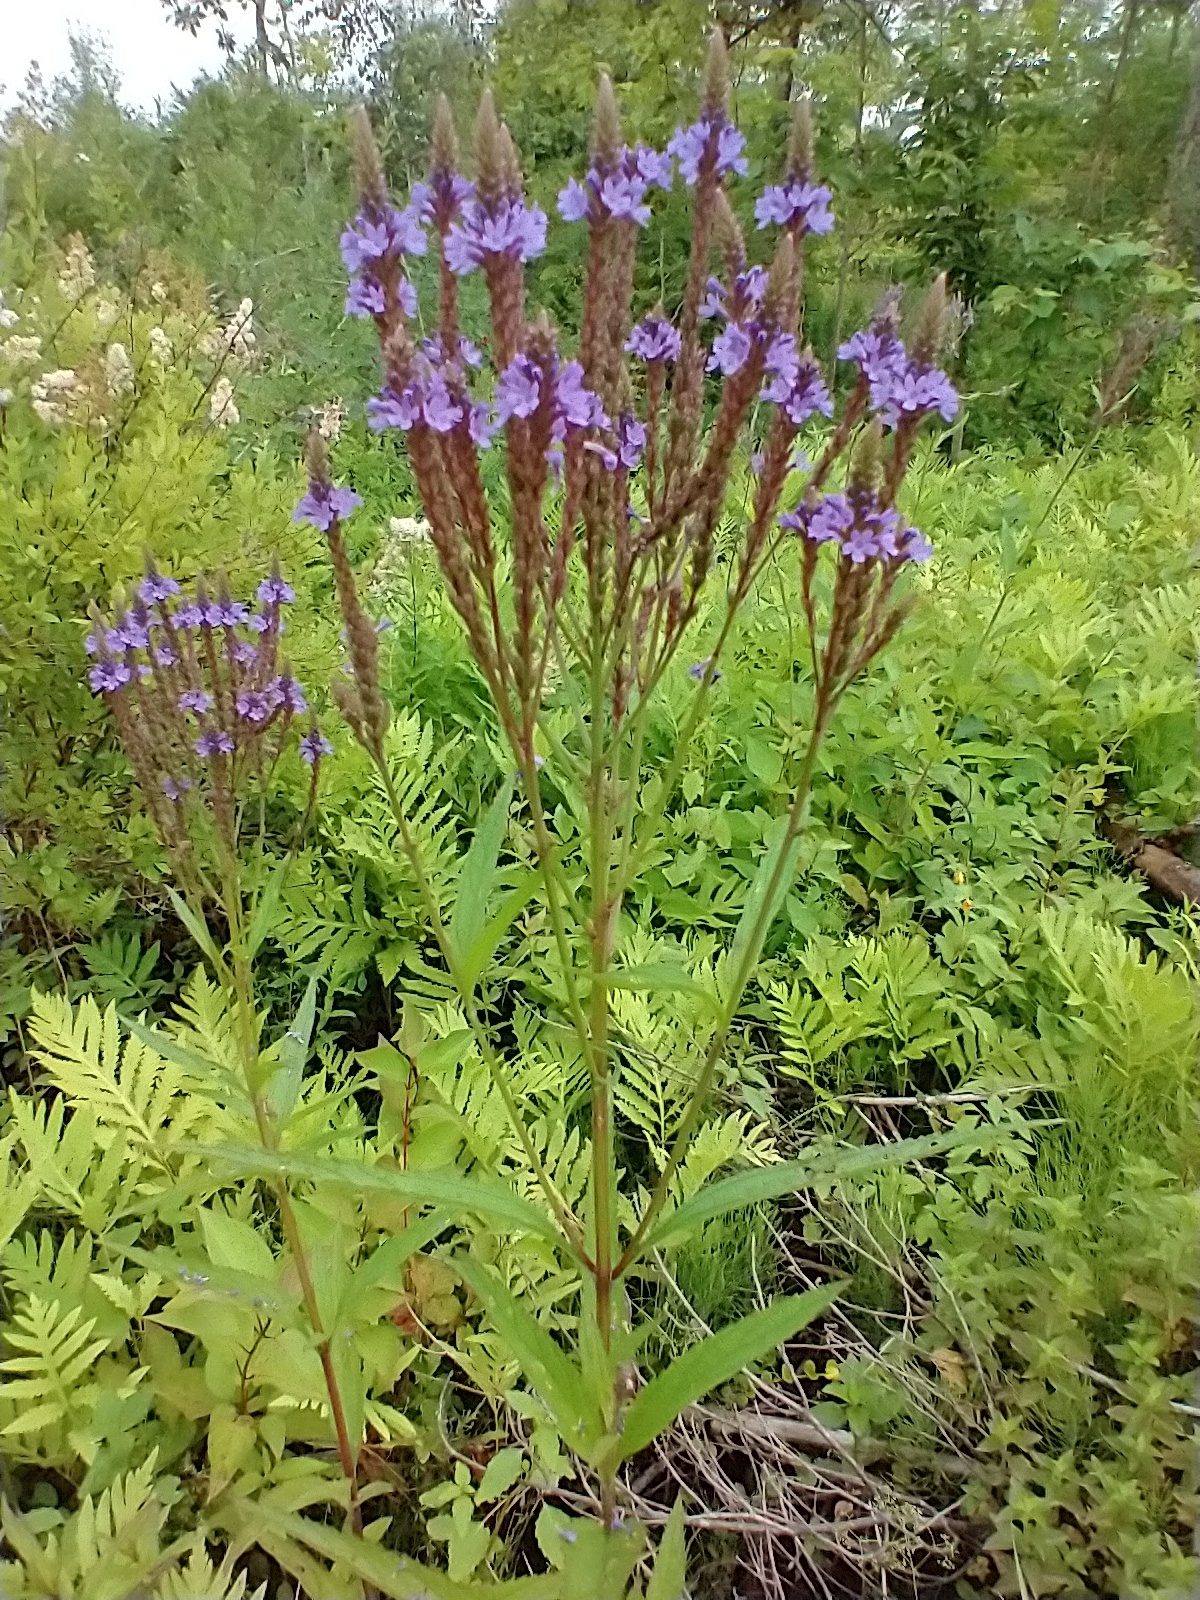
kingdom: Plantae
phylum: Tracheophyta
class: Magnoliopsida
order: Lamiales
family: Verbenaceae
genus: Verbena
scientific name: Verbena hastata
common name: American blue vervain
